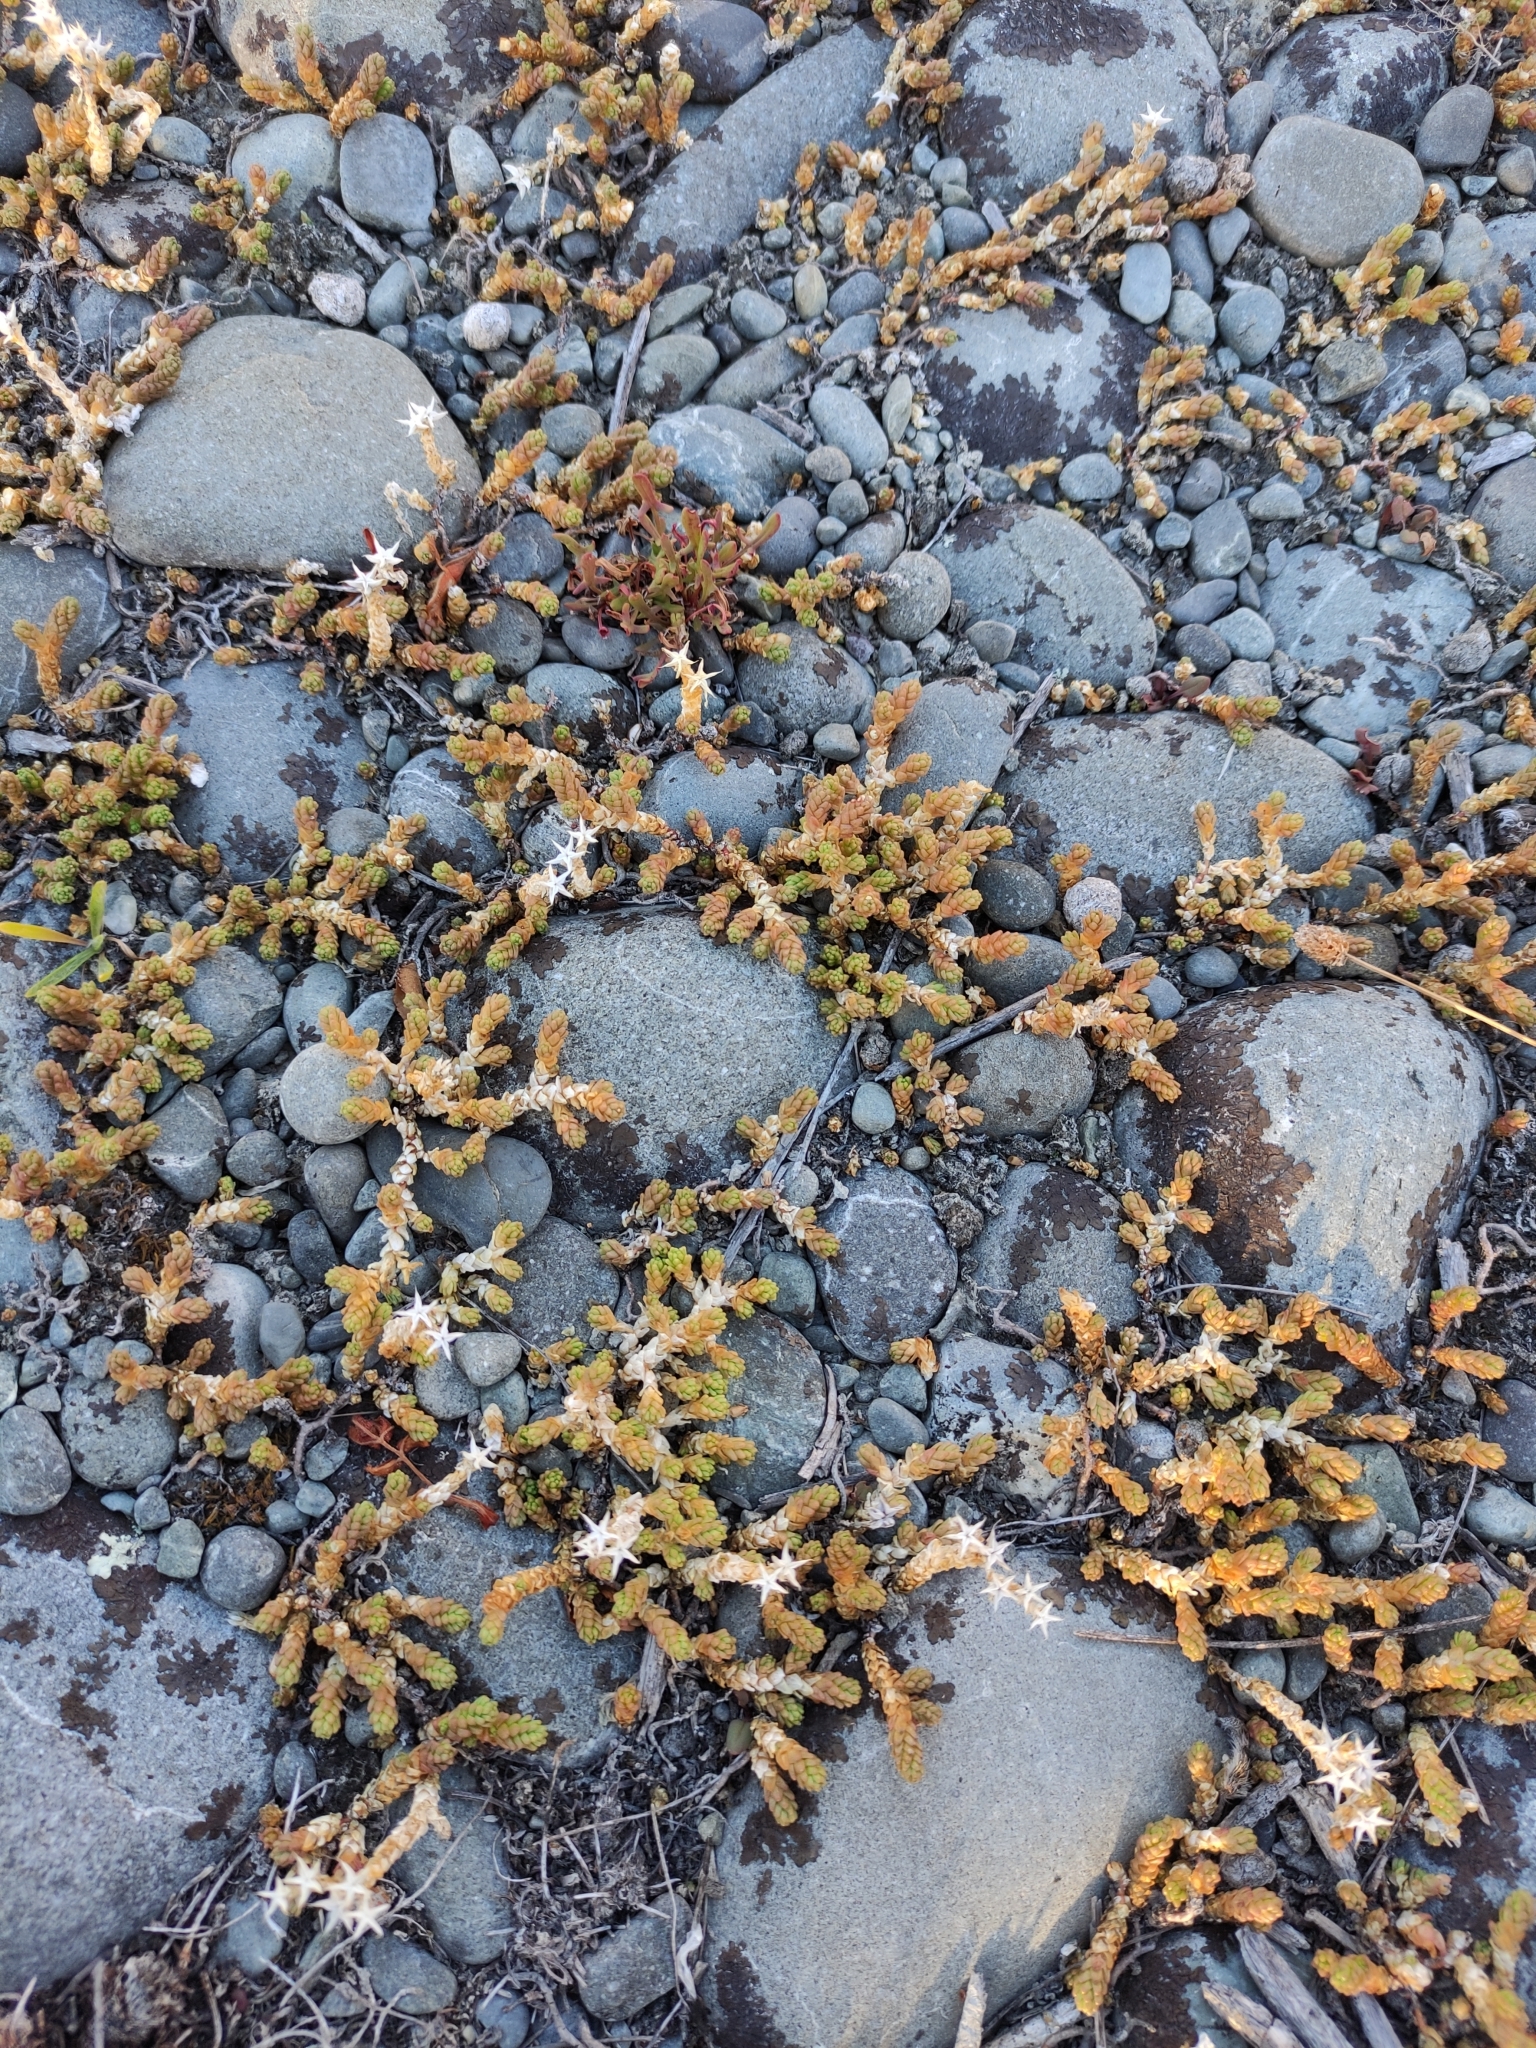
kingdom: Plantae
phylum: Tracheophyta
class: Magnoliopsida
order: Saxifragales
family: Crassulaceae
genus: Sedum
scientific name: Sedum acre
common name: Biting stonecrop
